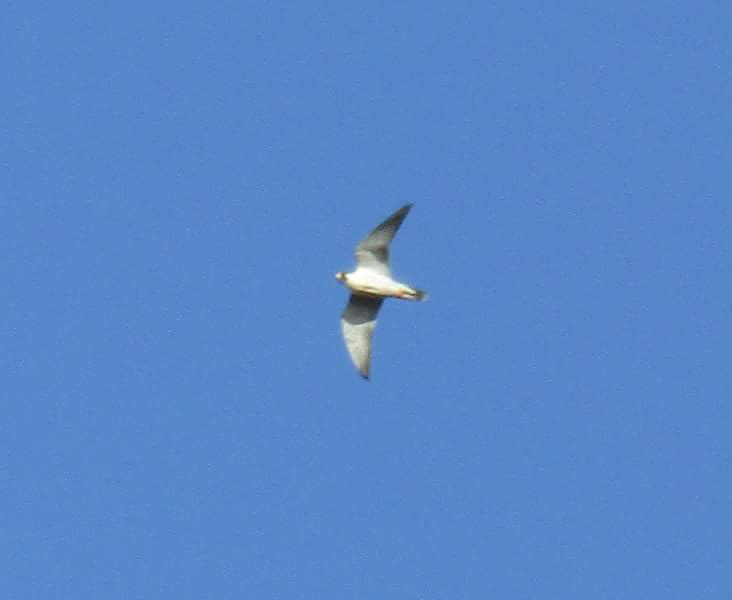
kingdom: Animalia
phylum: Chordata
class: Aves
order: Falconiformes
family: Falconidae
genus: Falco
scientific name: Falco peregrinus
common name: Peregrine falcon
